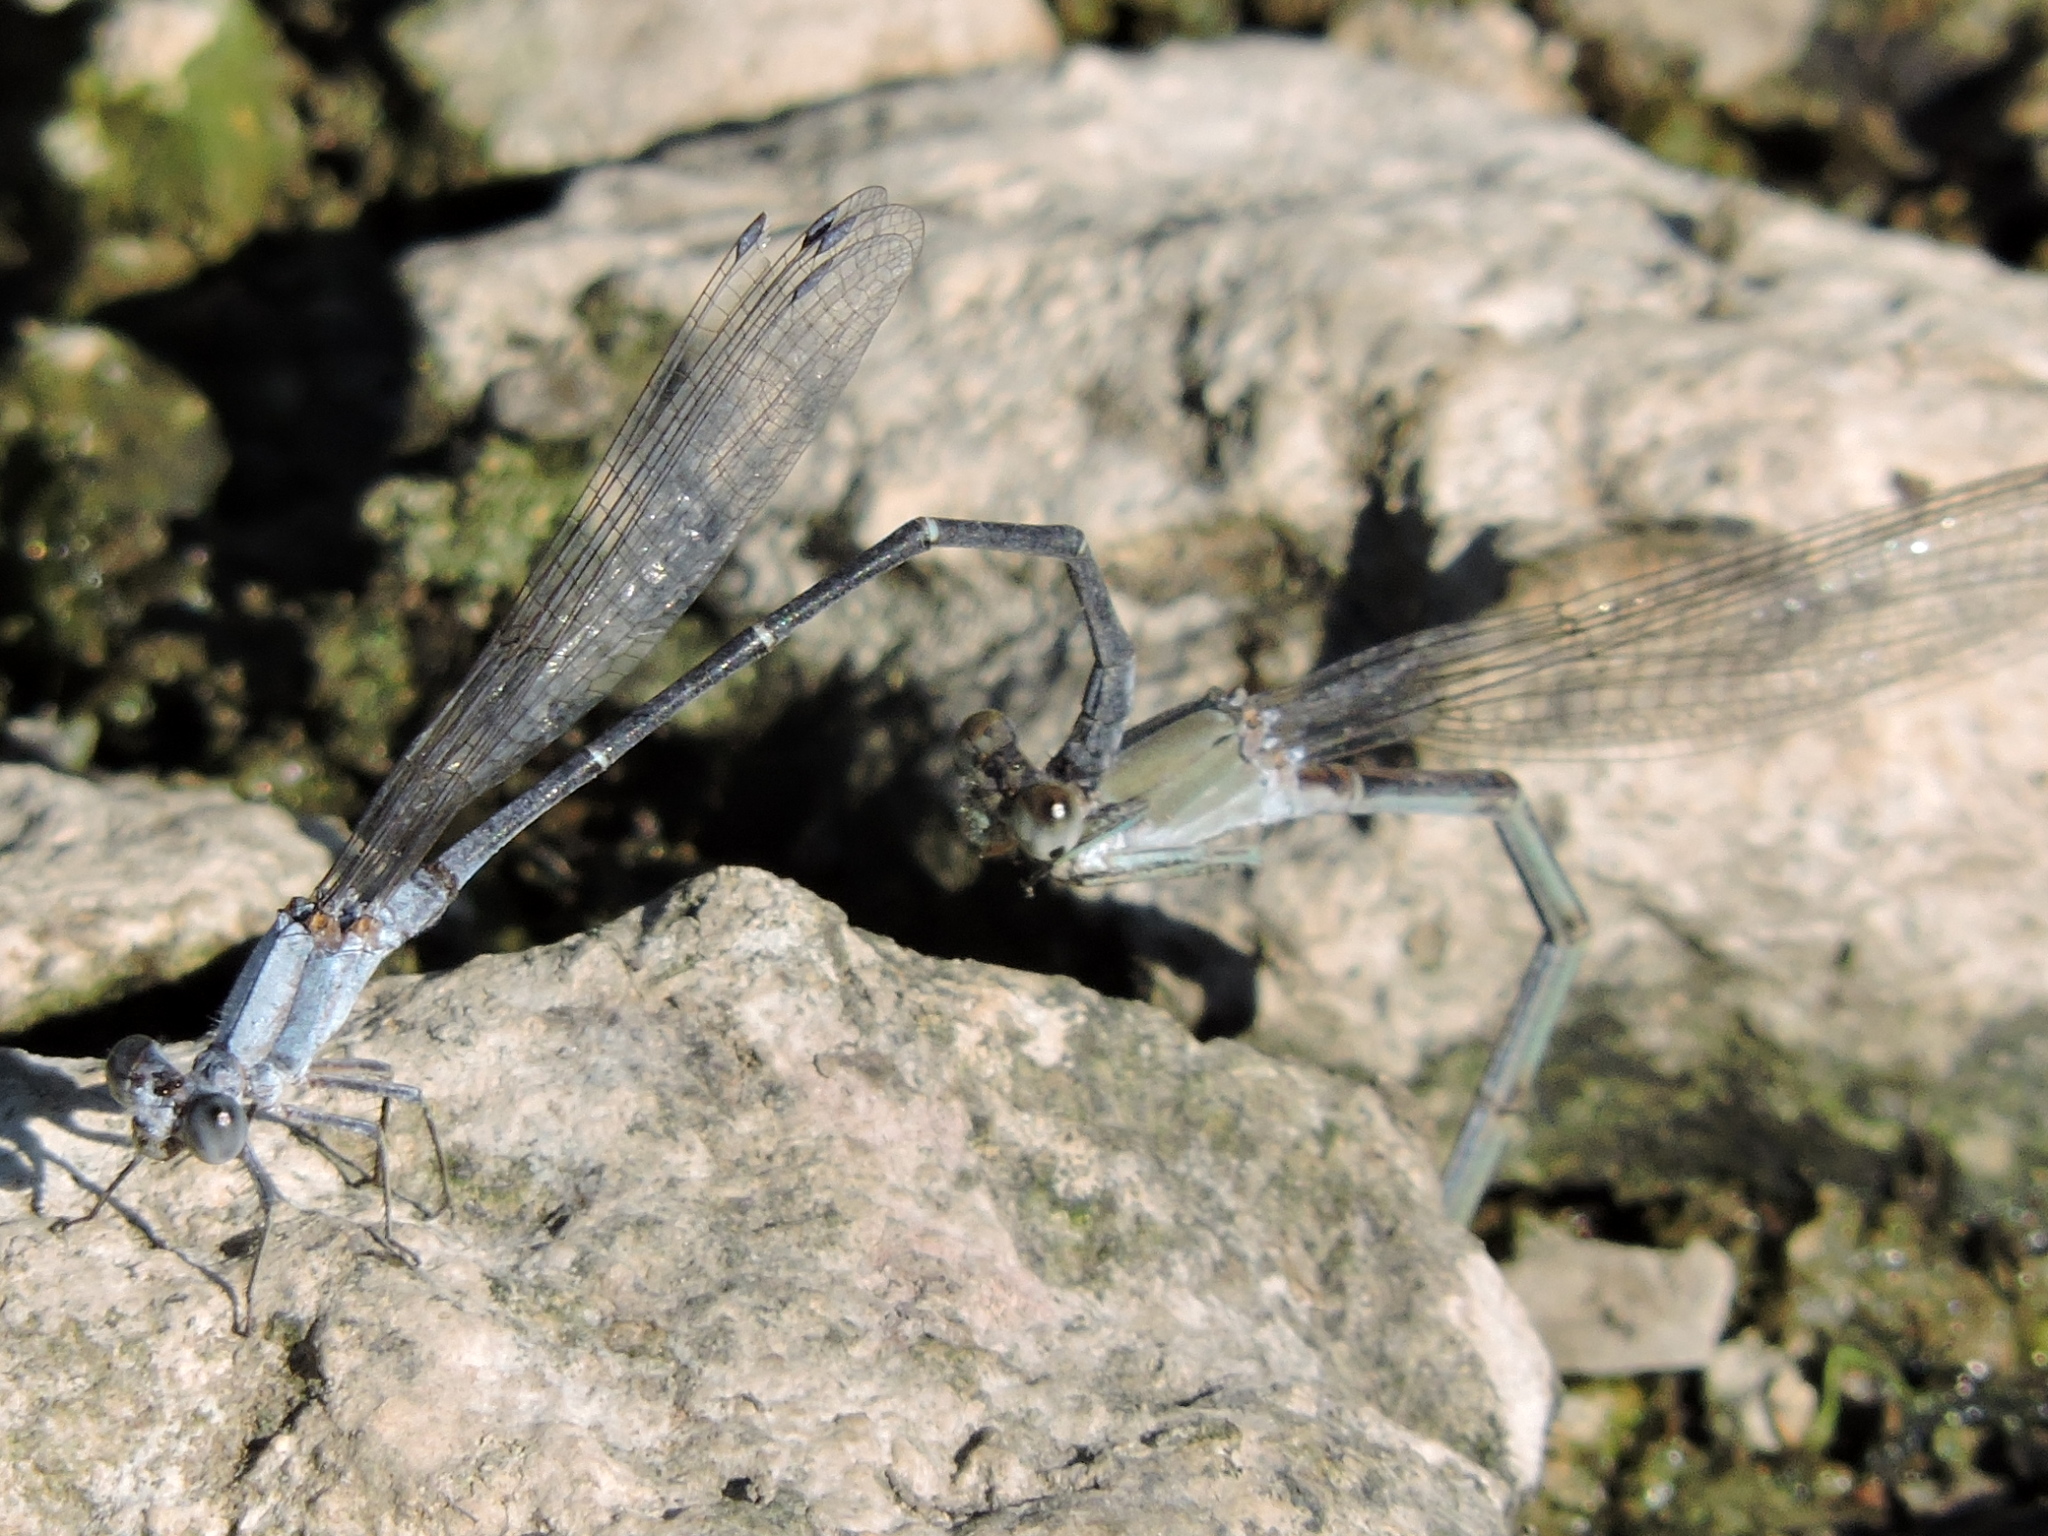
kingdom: Animalia
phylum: Arthropoda
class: Insecta
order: Odonata
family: Coenagrionidae
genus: Argia
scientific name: Argia moesta
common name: Powdered dancer
